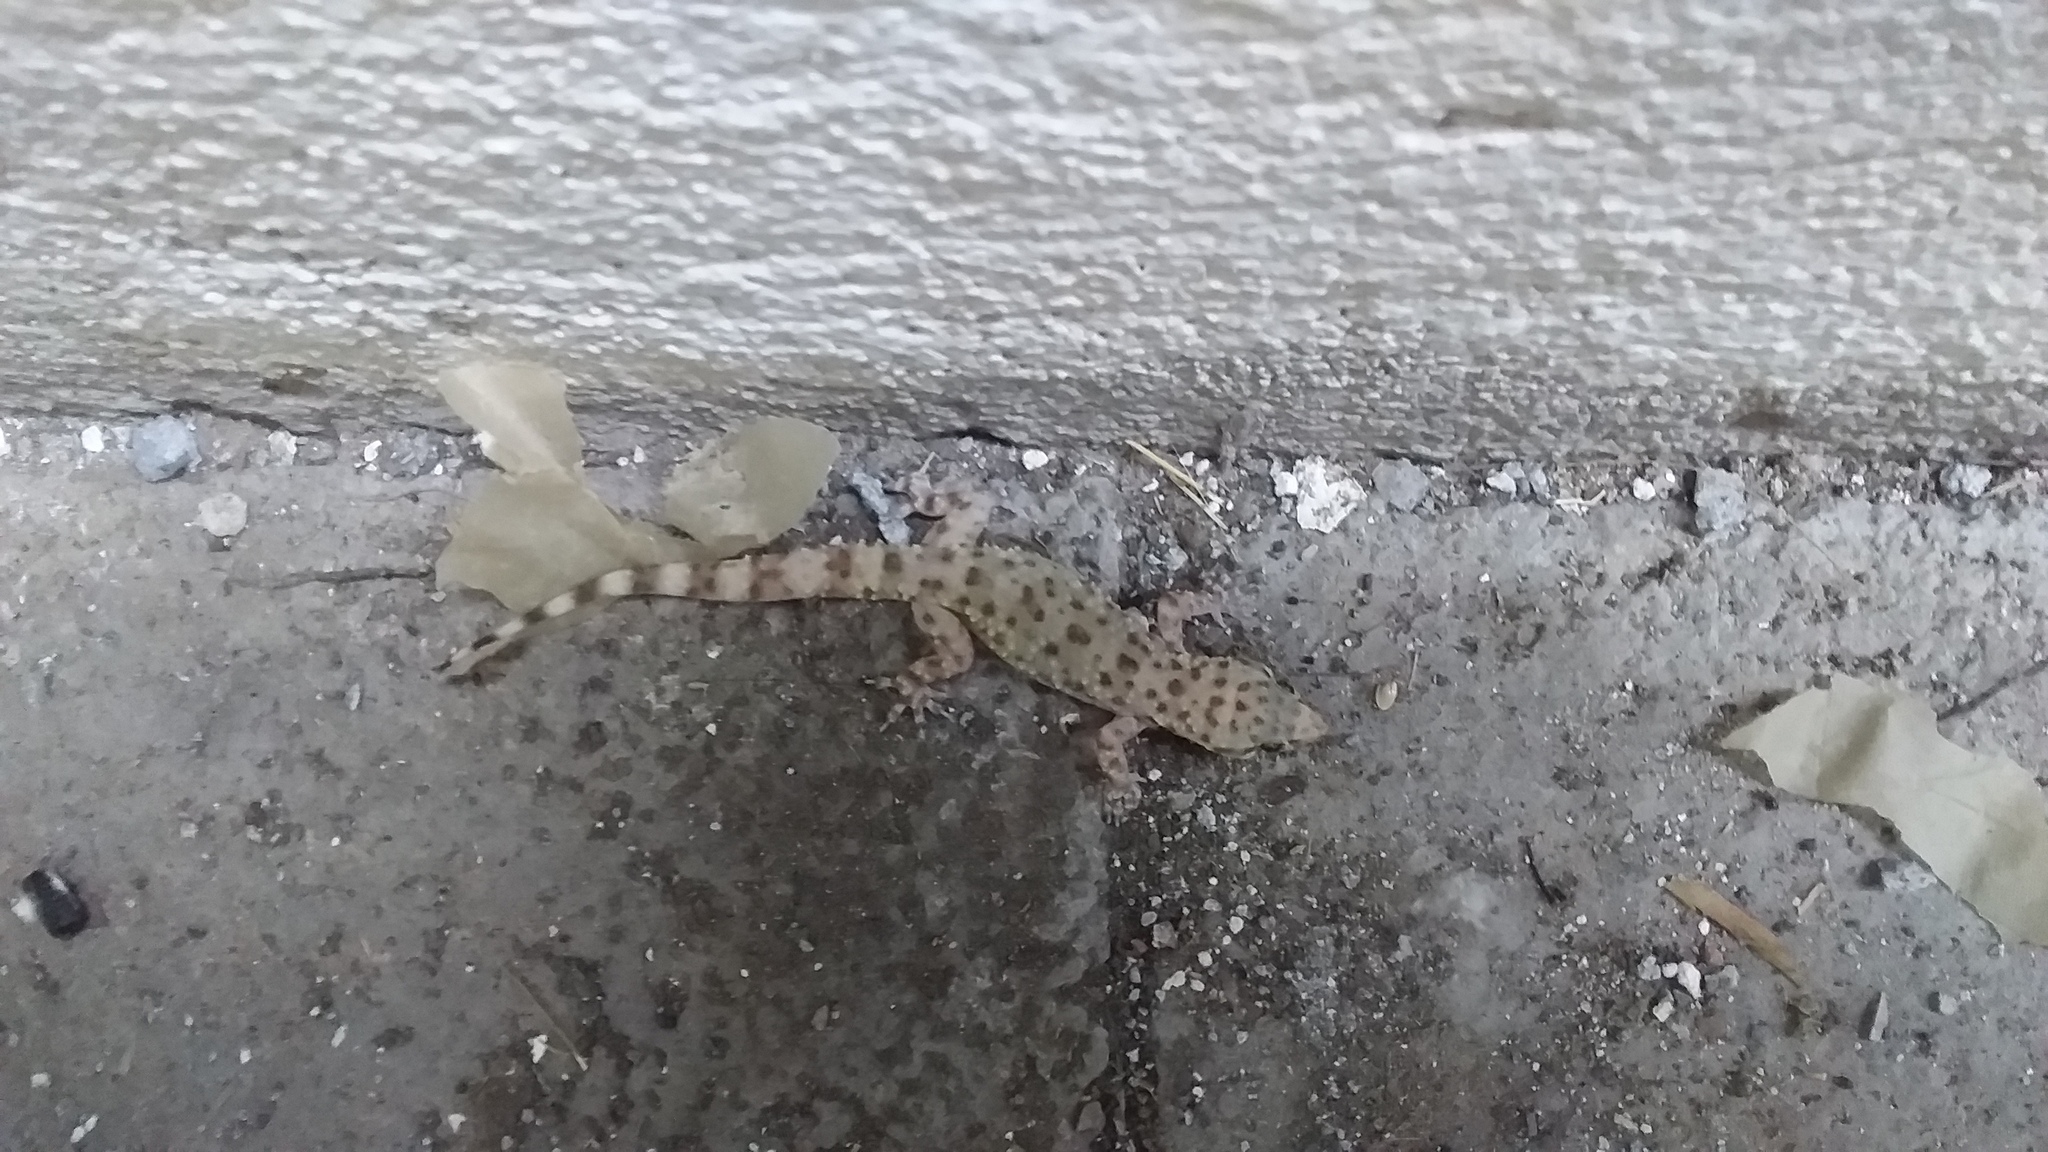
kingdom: Animalia
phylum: Chordata
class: Squamata
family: Gekkonidae
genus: Hemidactylus
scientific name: Hemidactylus turcicus
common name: Turkish gecko
